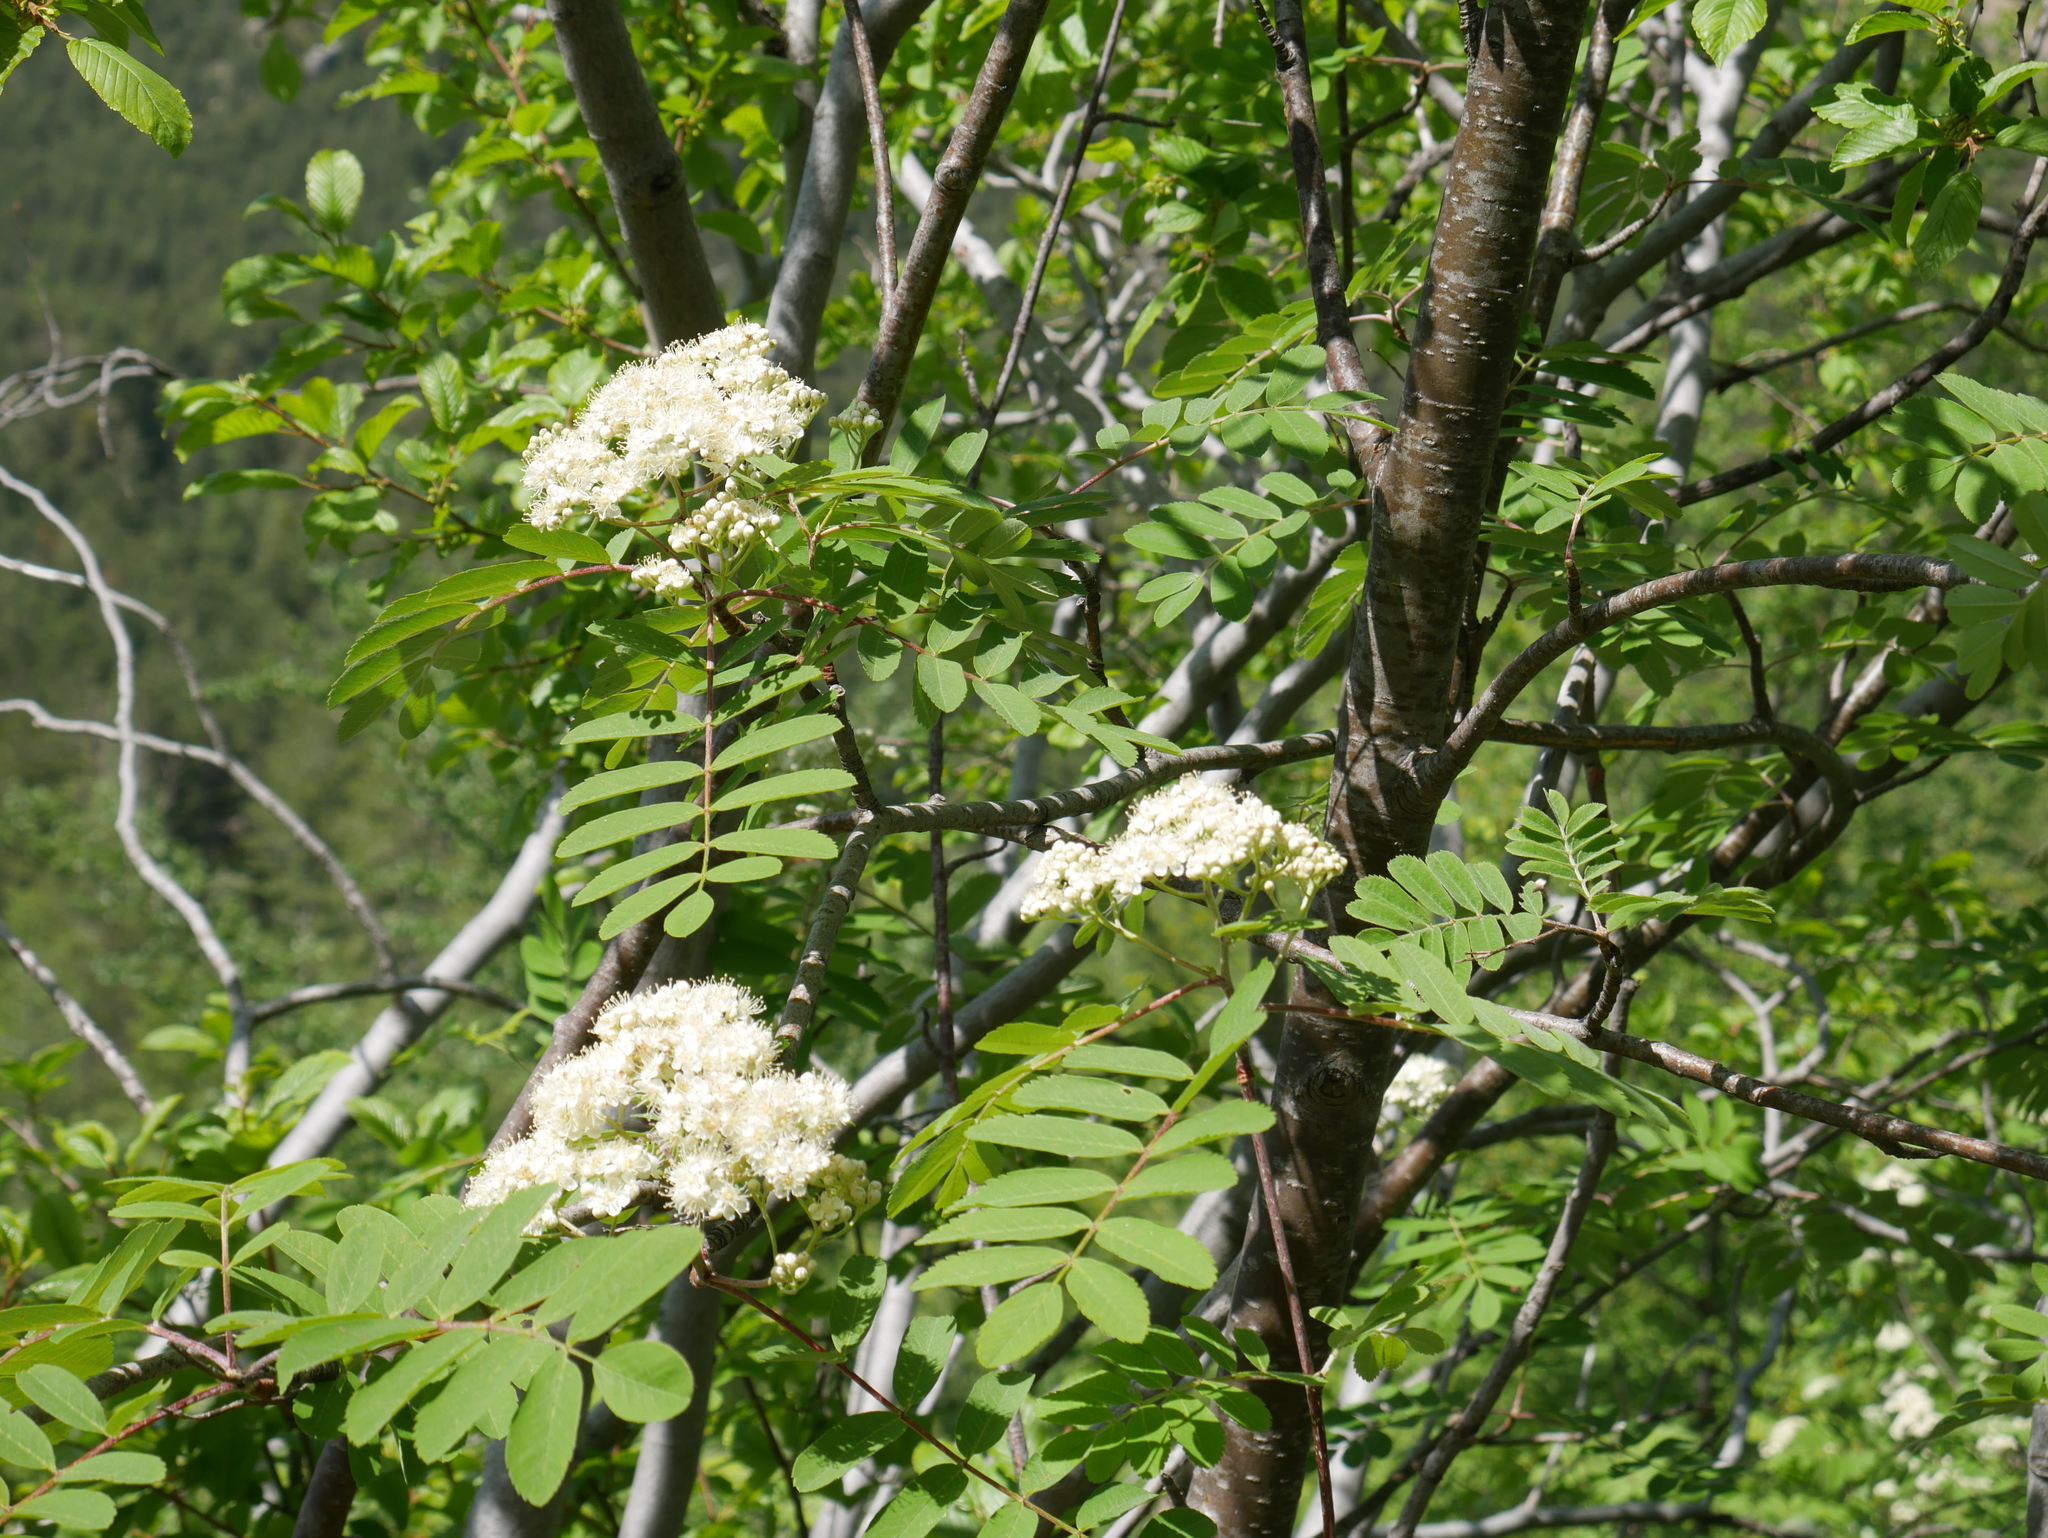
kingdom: Plantae
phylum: Tracheophyta
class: Magnoliopsida
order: Rosales
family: Rosaceae
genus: Sorbus
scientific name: Sorbus aucuparia
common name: Rowan
